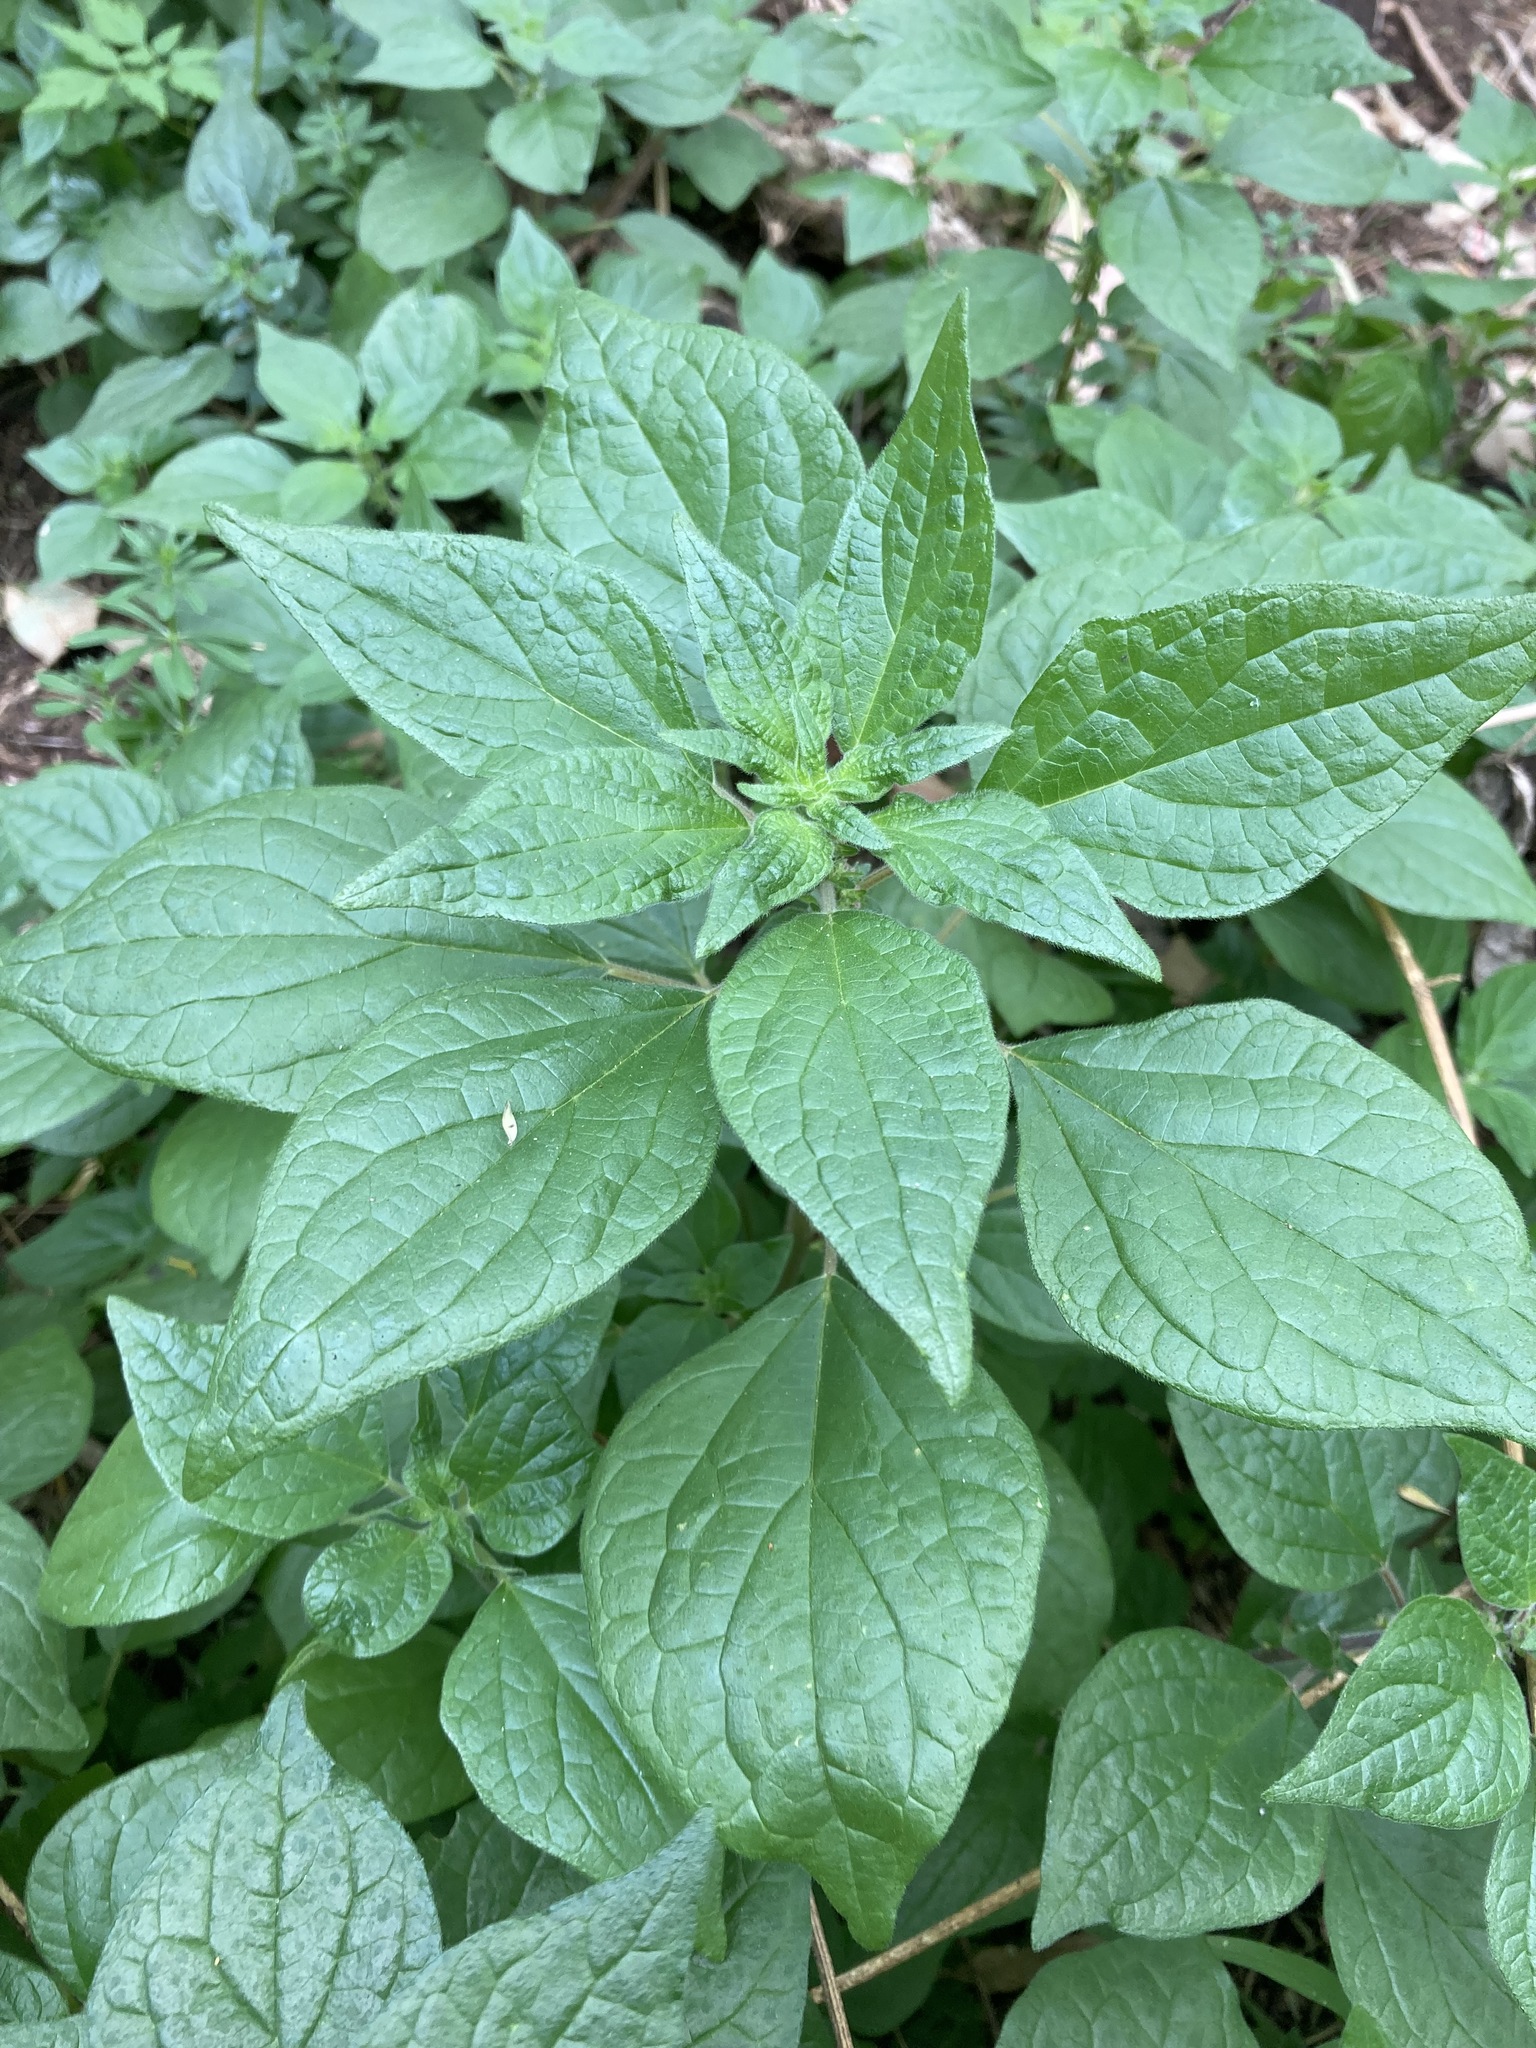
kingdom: Plantae
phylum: Tracheophyta
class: Magnoliopsida
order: Rosales
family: Urticaceae
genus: Parietaria
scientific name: Parietaria judaica
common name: Pellitory-of-the-wall
